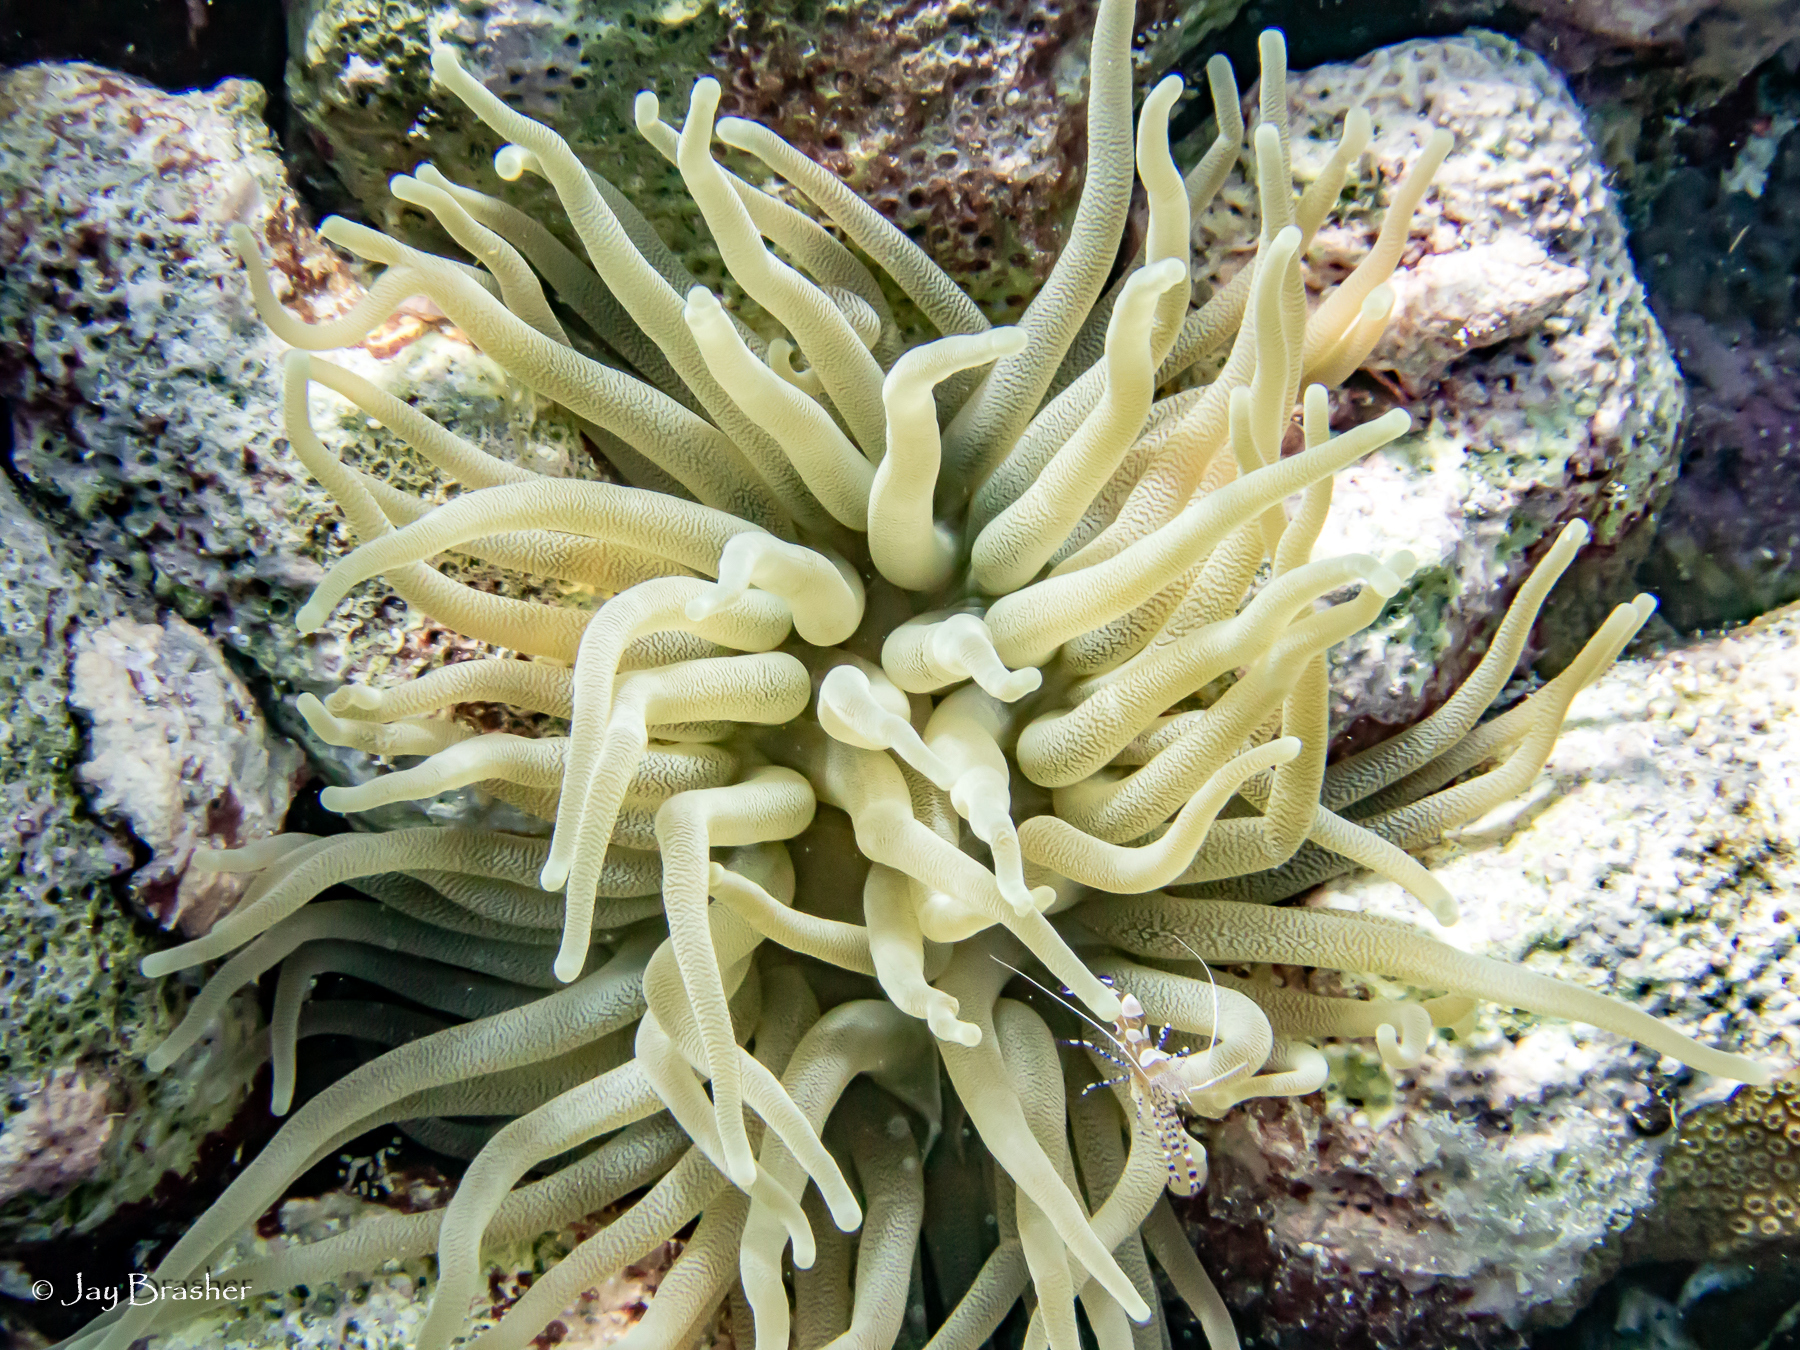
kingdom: Animalia
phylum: Cnidaria
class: Anthozoa
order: Actiniaria
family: Actiniidae
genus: Condylactis
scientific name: Condylactis gigantea
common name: Giant caribbean anemone
